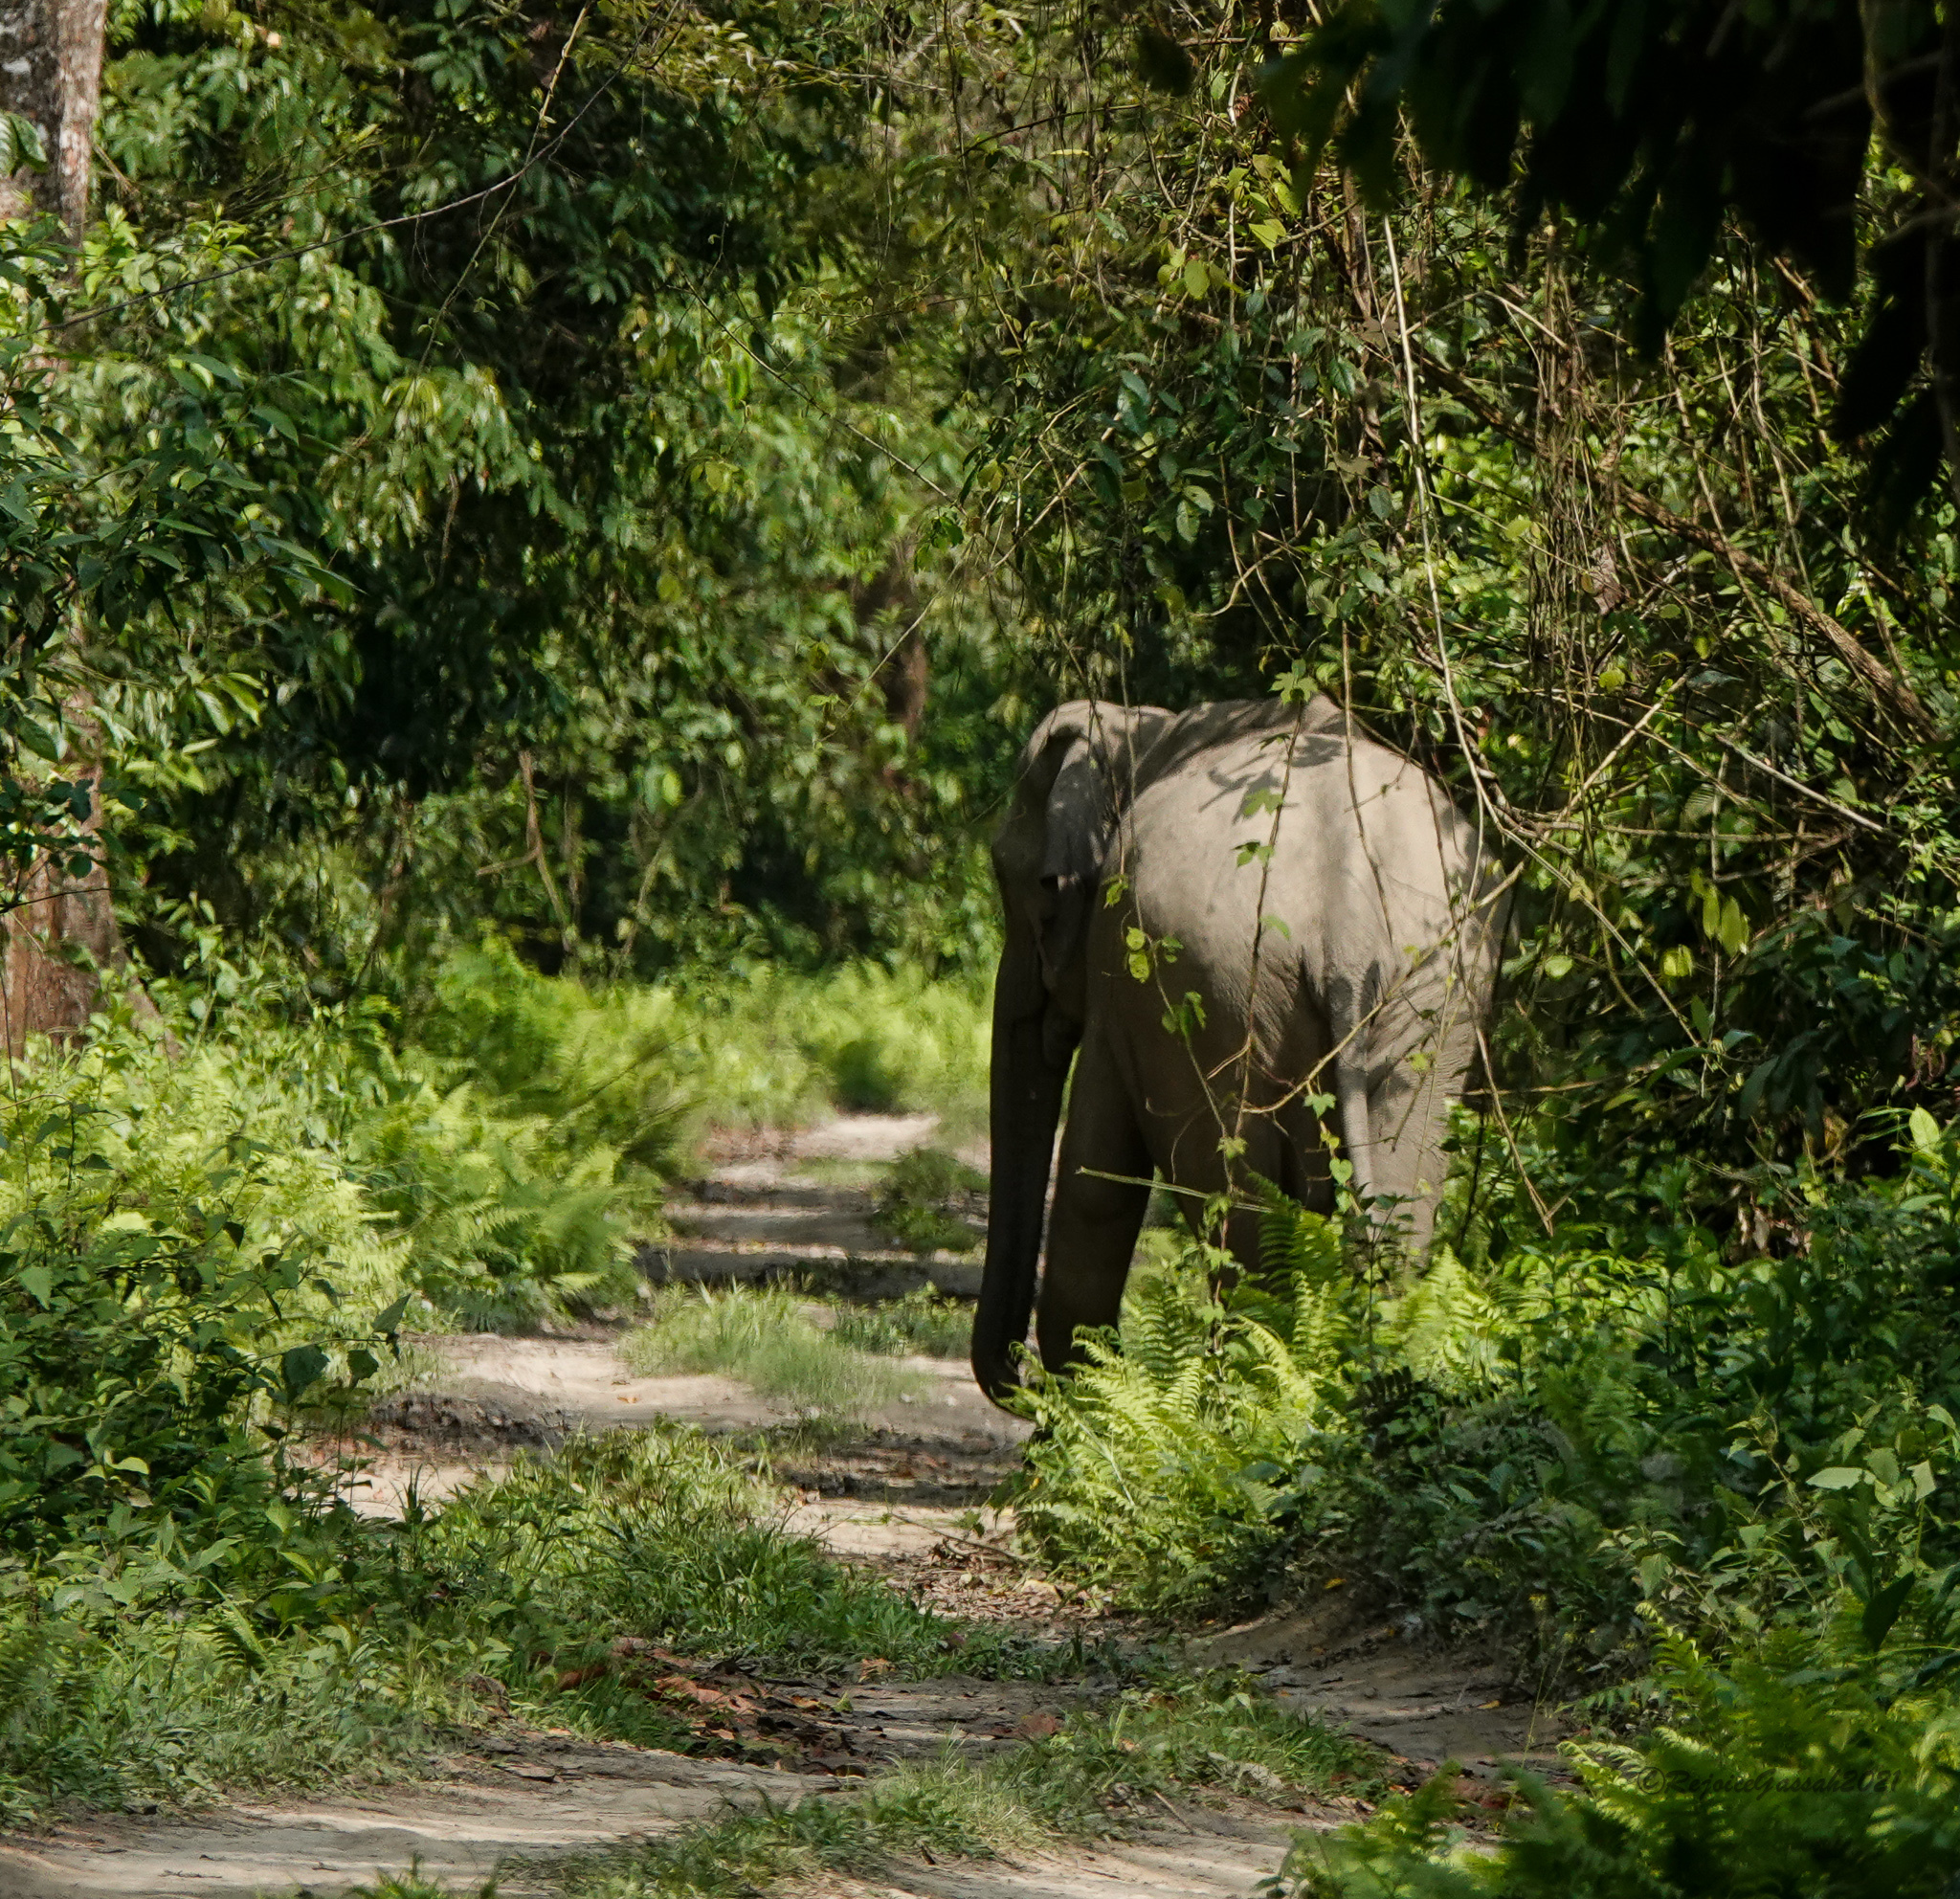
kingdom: Animalia
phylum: Chordata
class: Mammalia
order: Proboscidea
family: Elephantidae
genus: Elephas
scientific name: Elephas maximus
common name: Asian elephant
